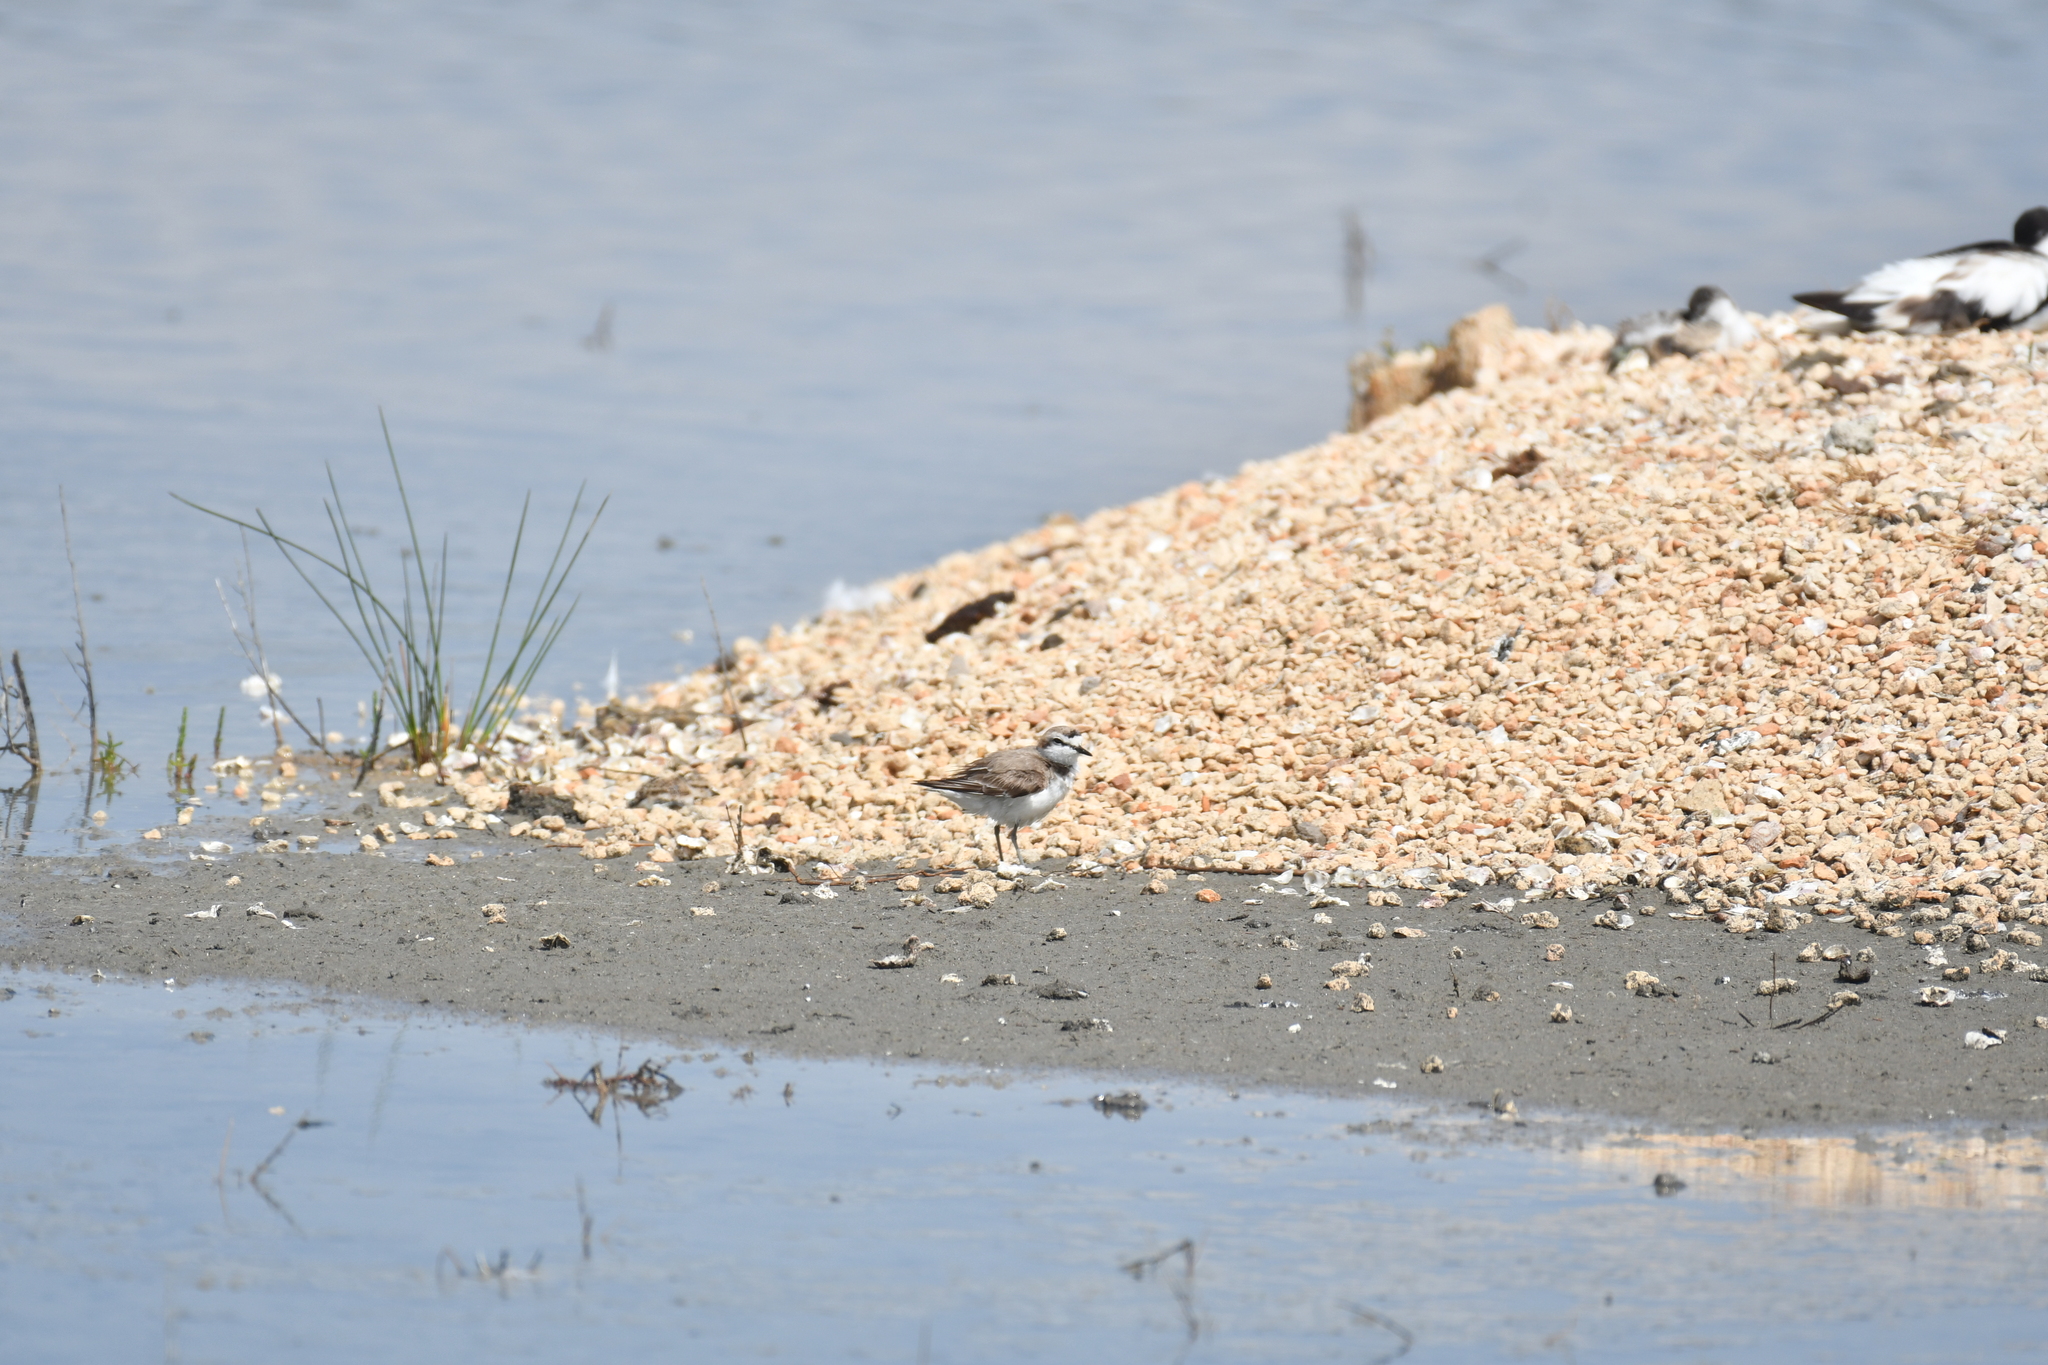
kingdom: Animalia
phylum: Chordata
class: Aves
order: Charadriiformes
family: Charadriidae
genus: Charadrius
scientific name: Charadrius alexandrinus
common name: Kentish plover
